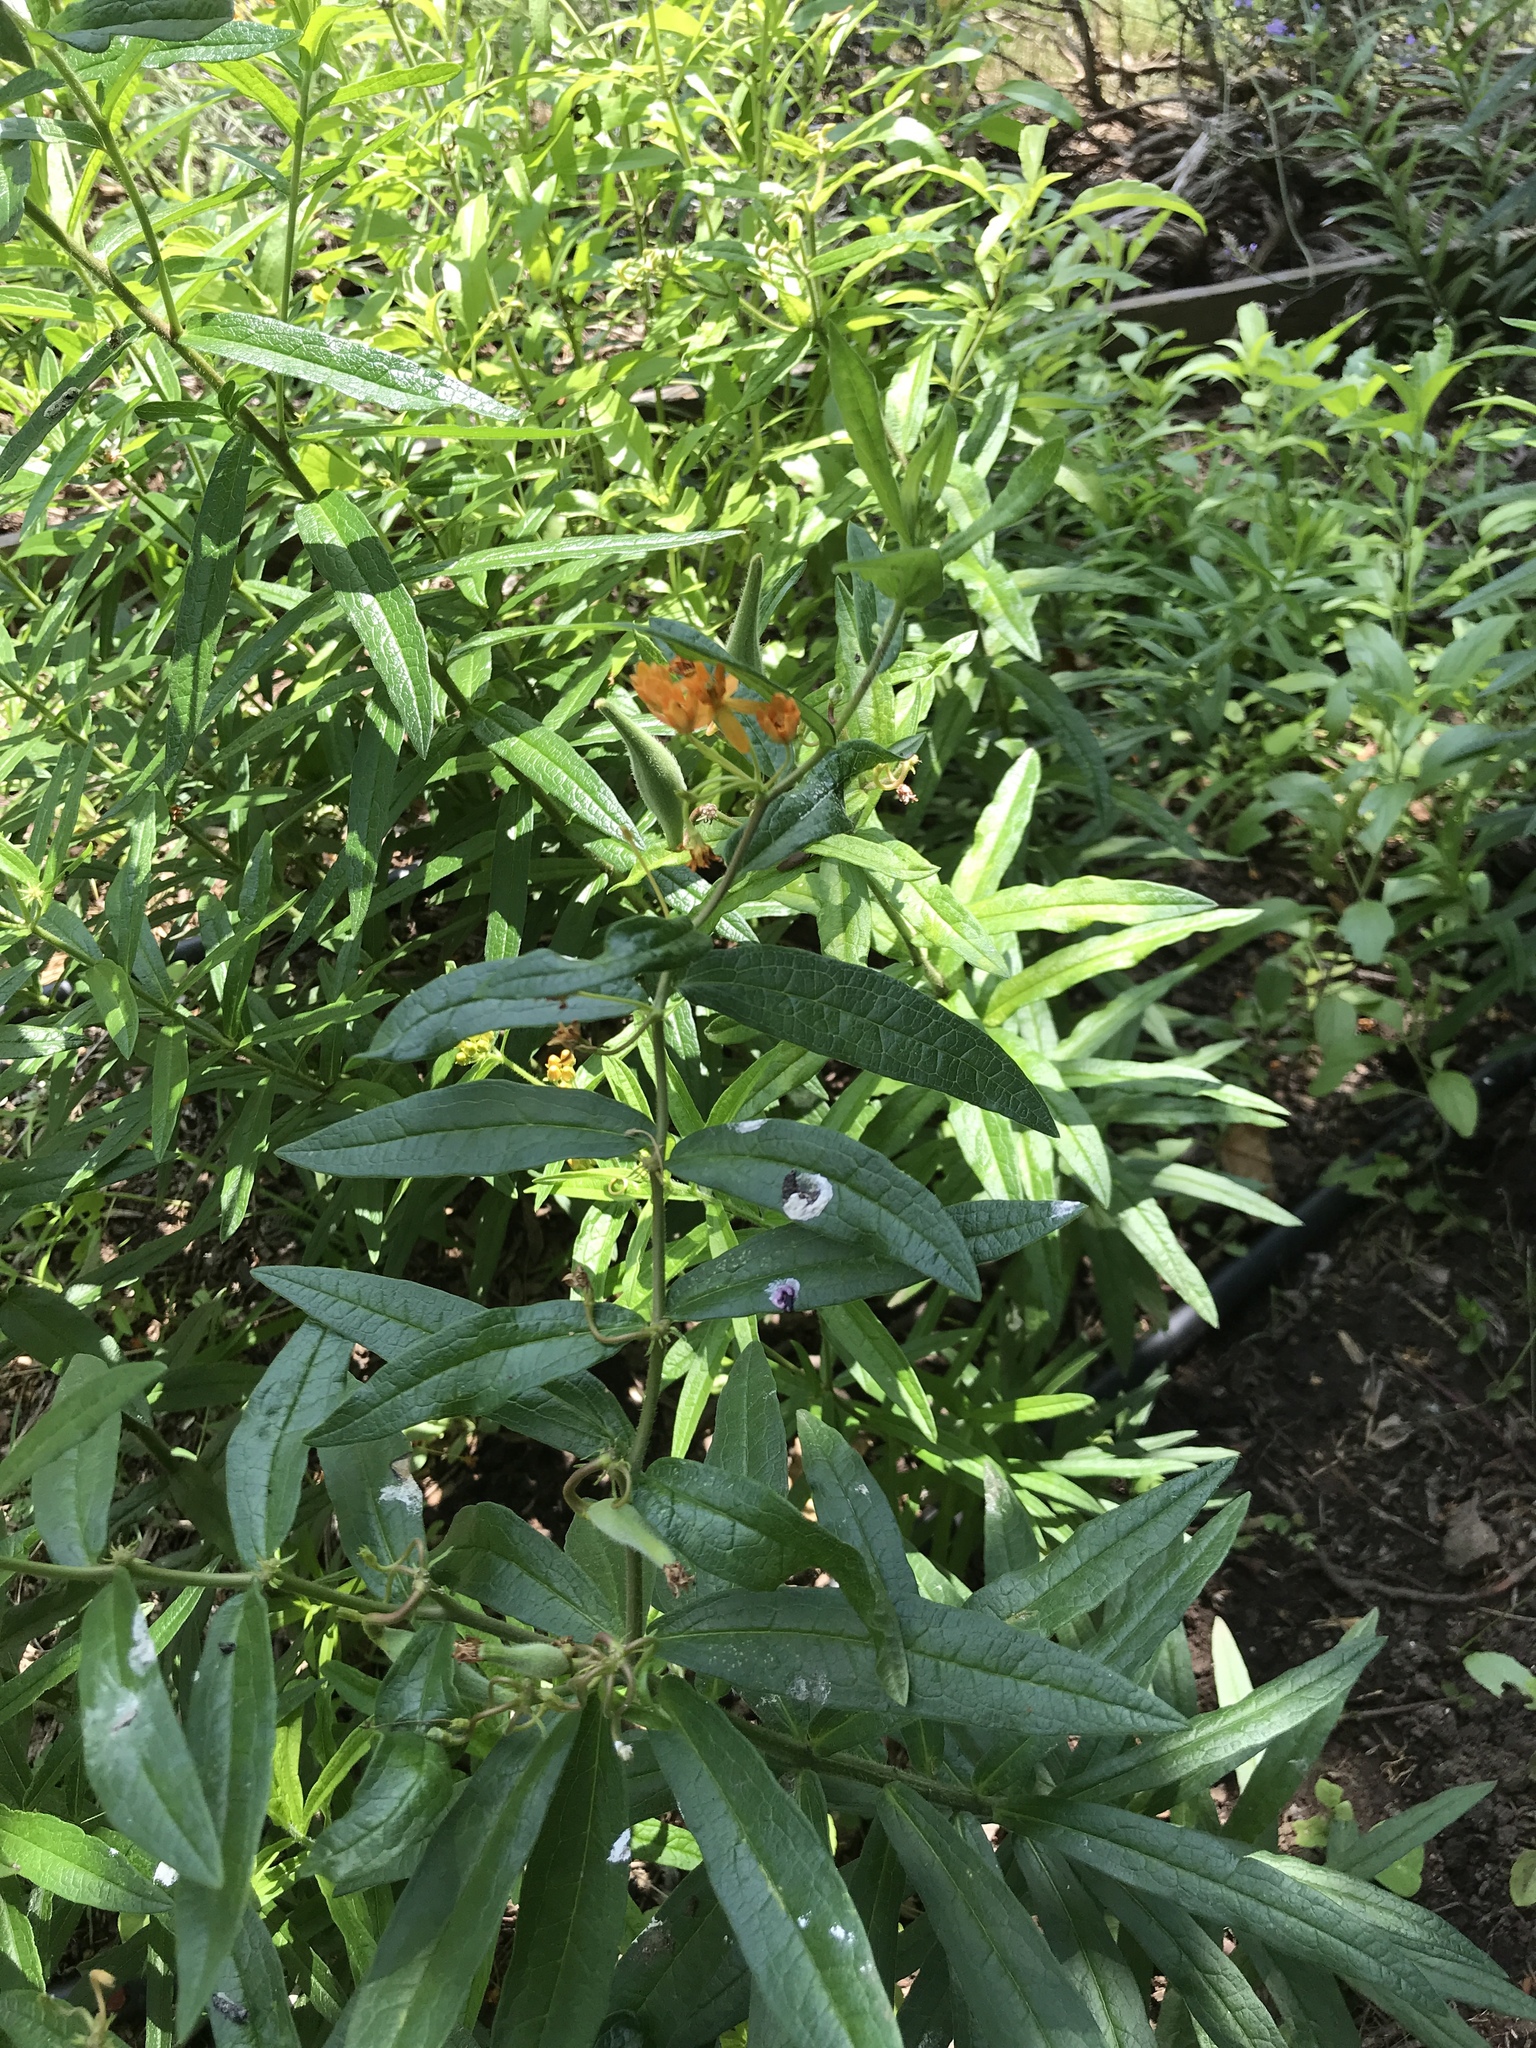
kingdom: Plantae
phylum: Tracheophyta
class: Magnoliopsida
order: Gentianales
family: Apocynaceae
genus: Asclepias
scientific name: Asclepias tuberosa
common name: Butterfly milkweed
